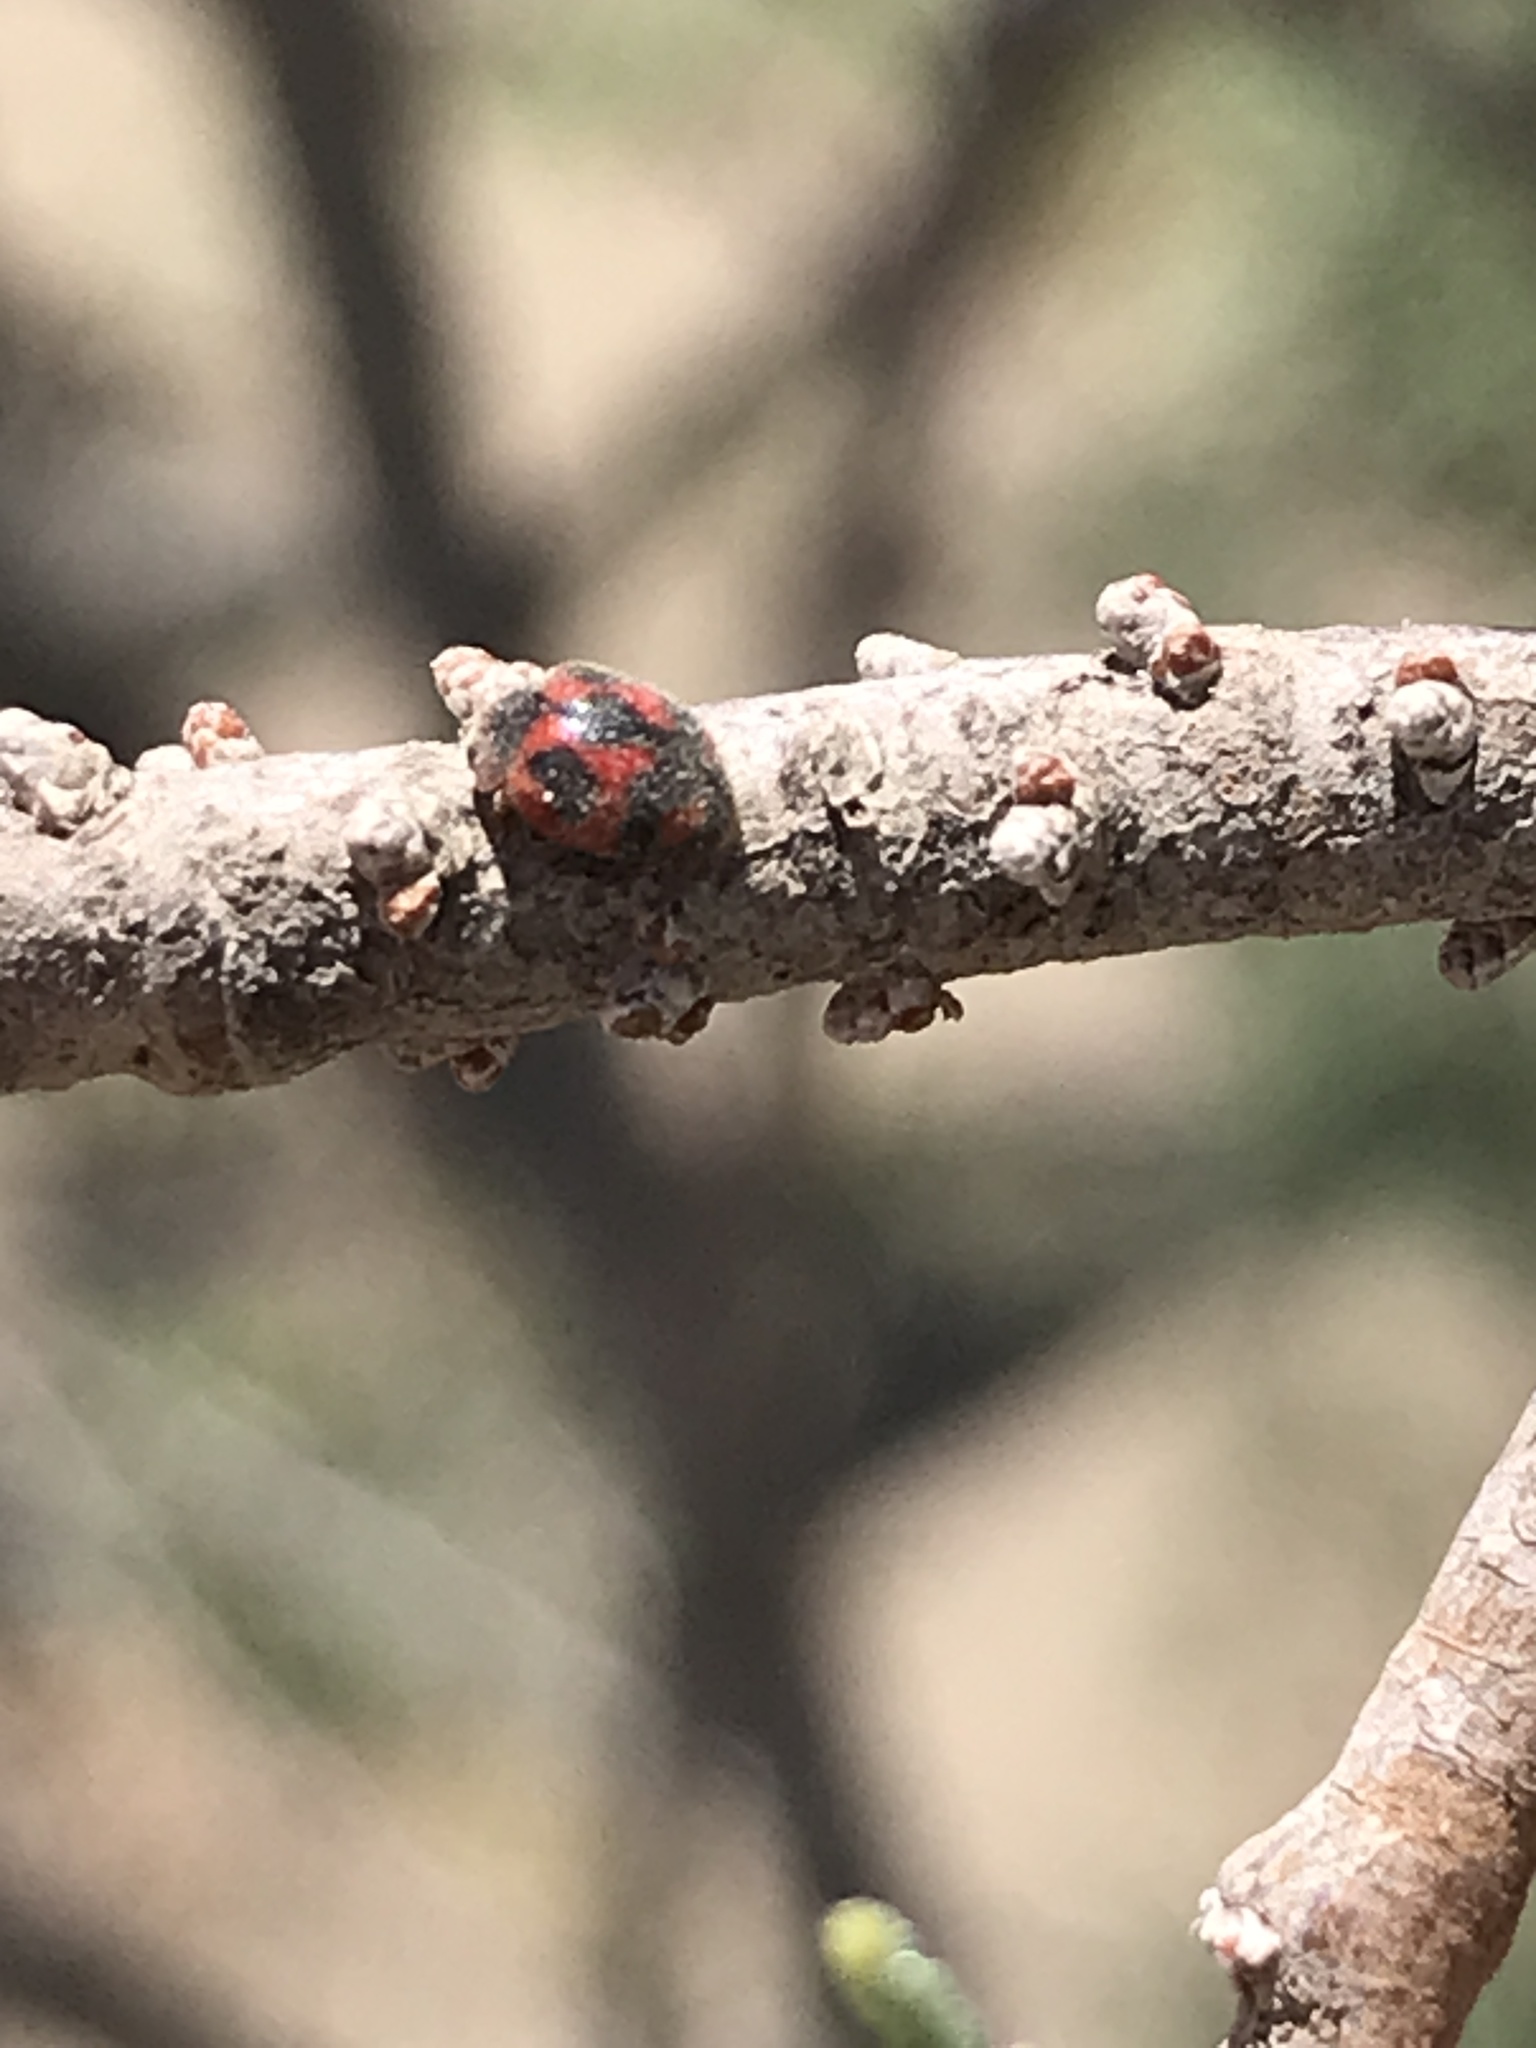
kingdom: Animalia
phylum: Arthropoda
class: Insecta
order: Coleoptera
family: Coccinellidae
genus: Novius
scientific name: Novius cardinalis
